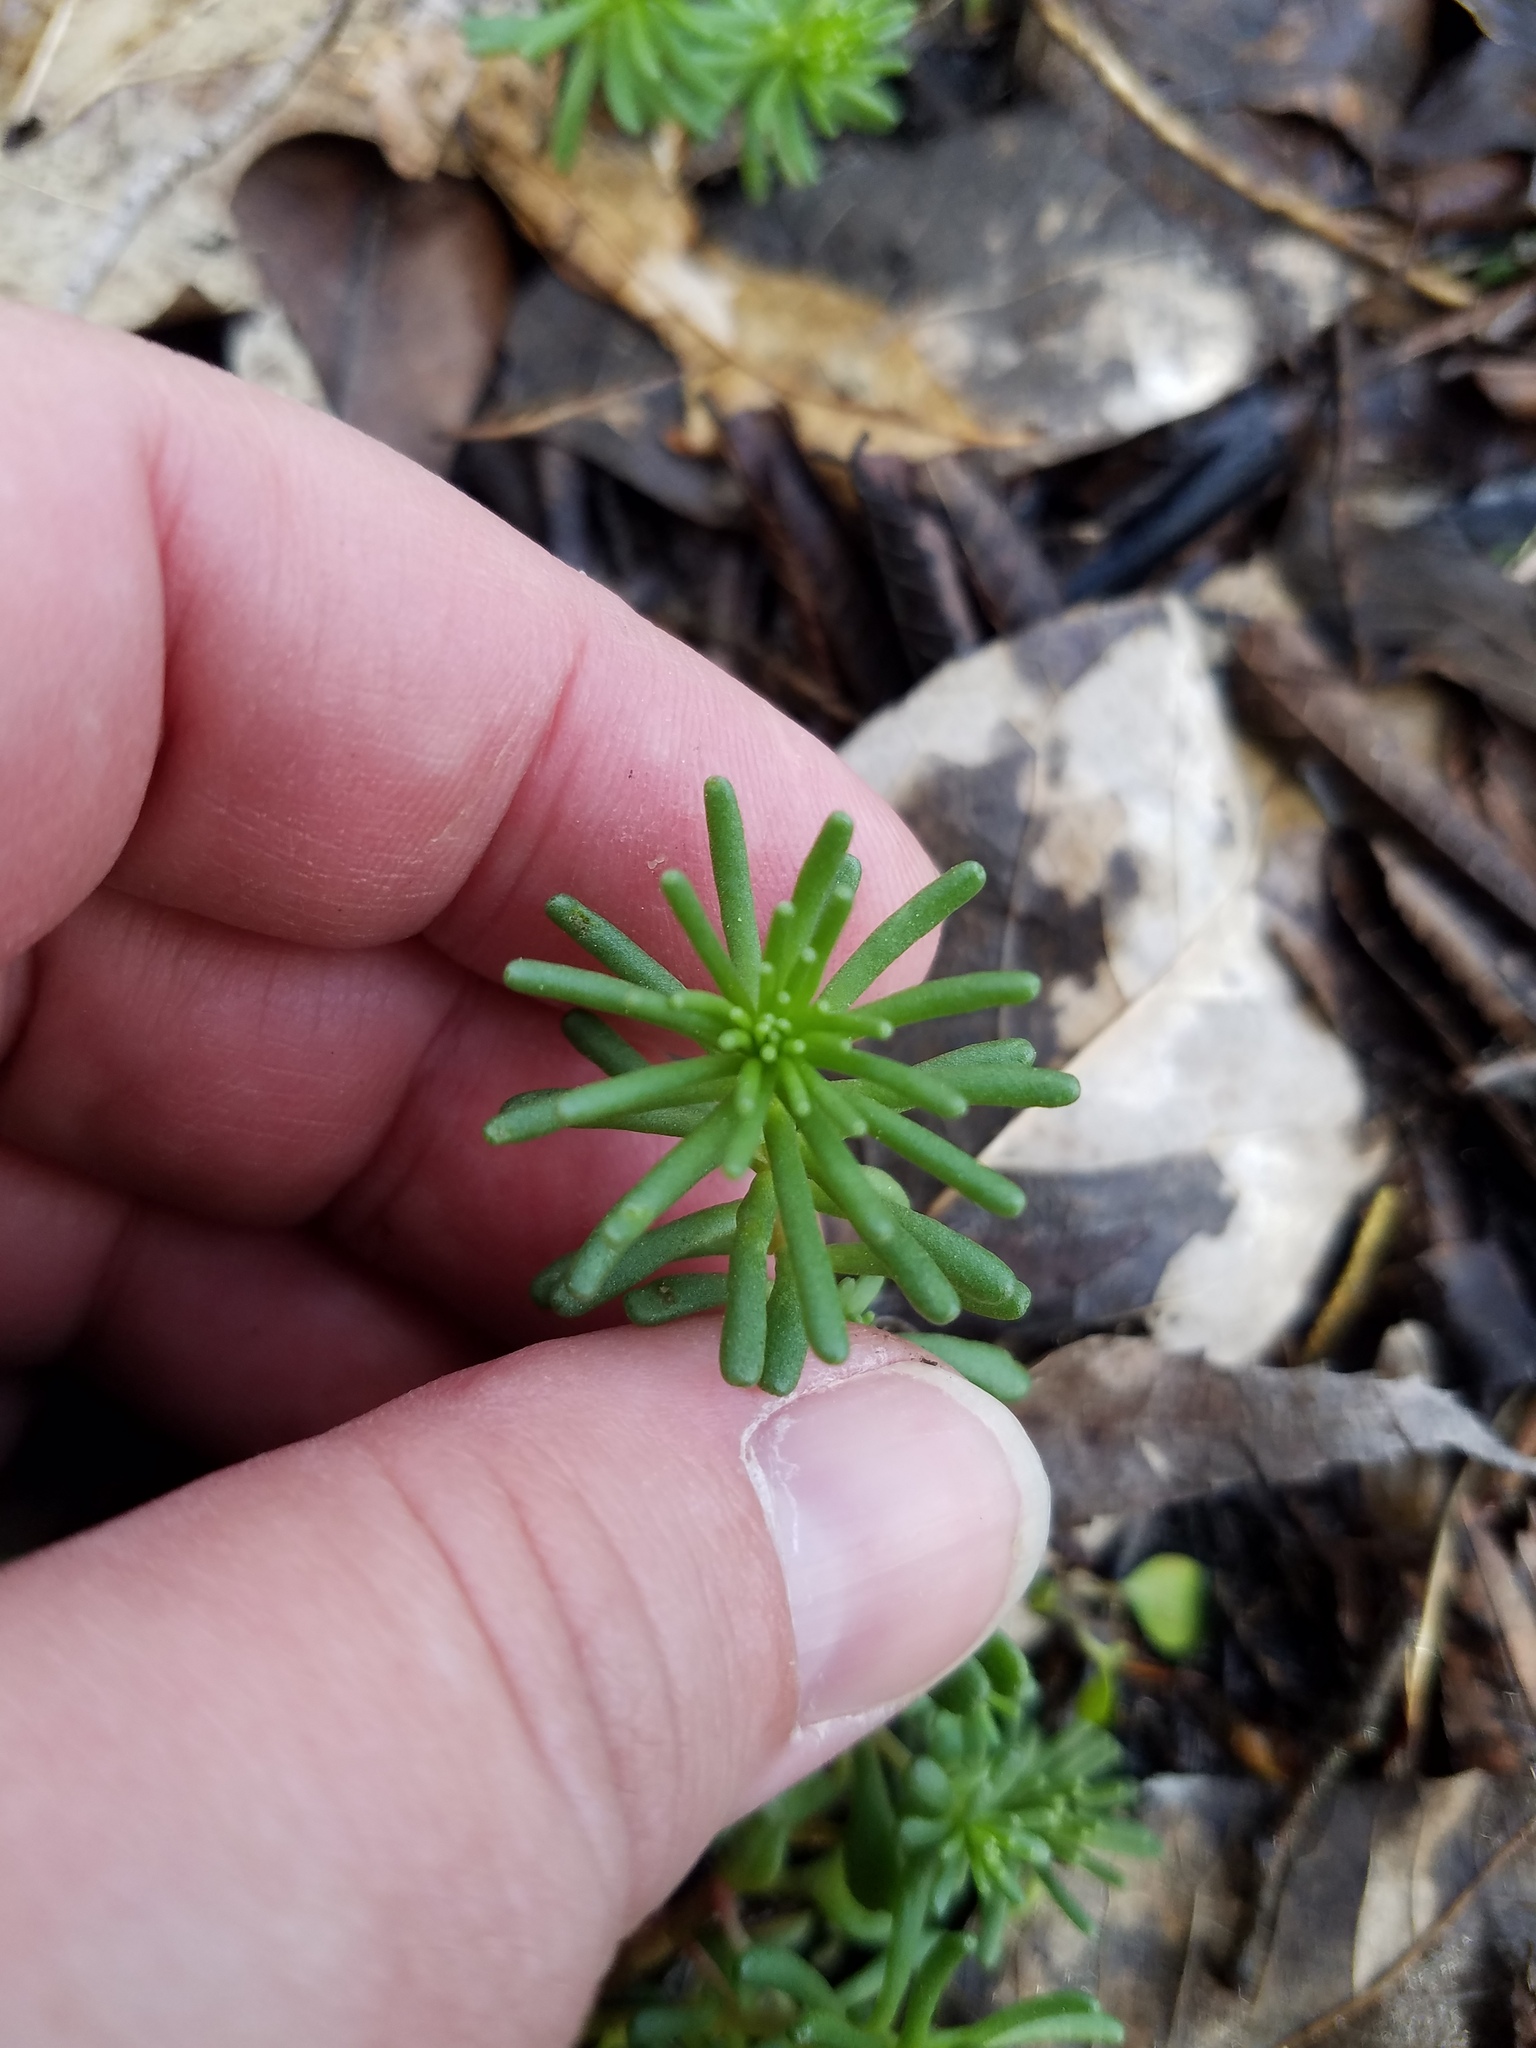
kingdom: Plantae
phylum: Tracheophyta
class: Magnoliopsida
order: Saxifragales
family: Crassulaceae
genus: Sedum
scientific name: Sedum pulchellum
